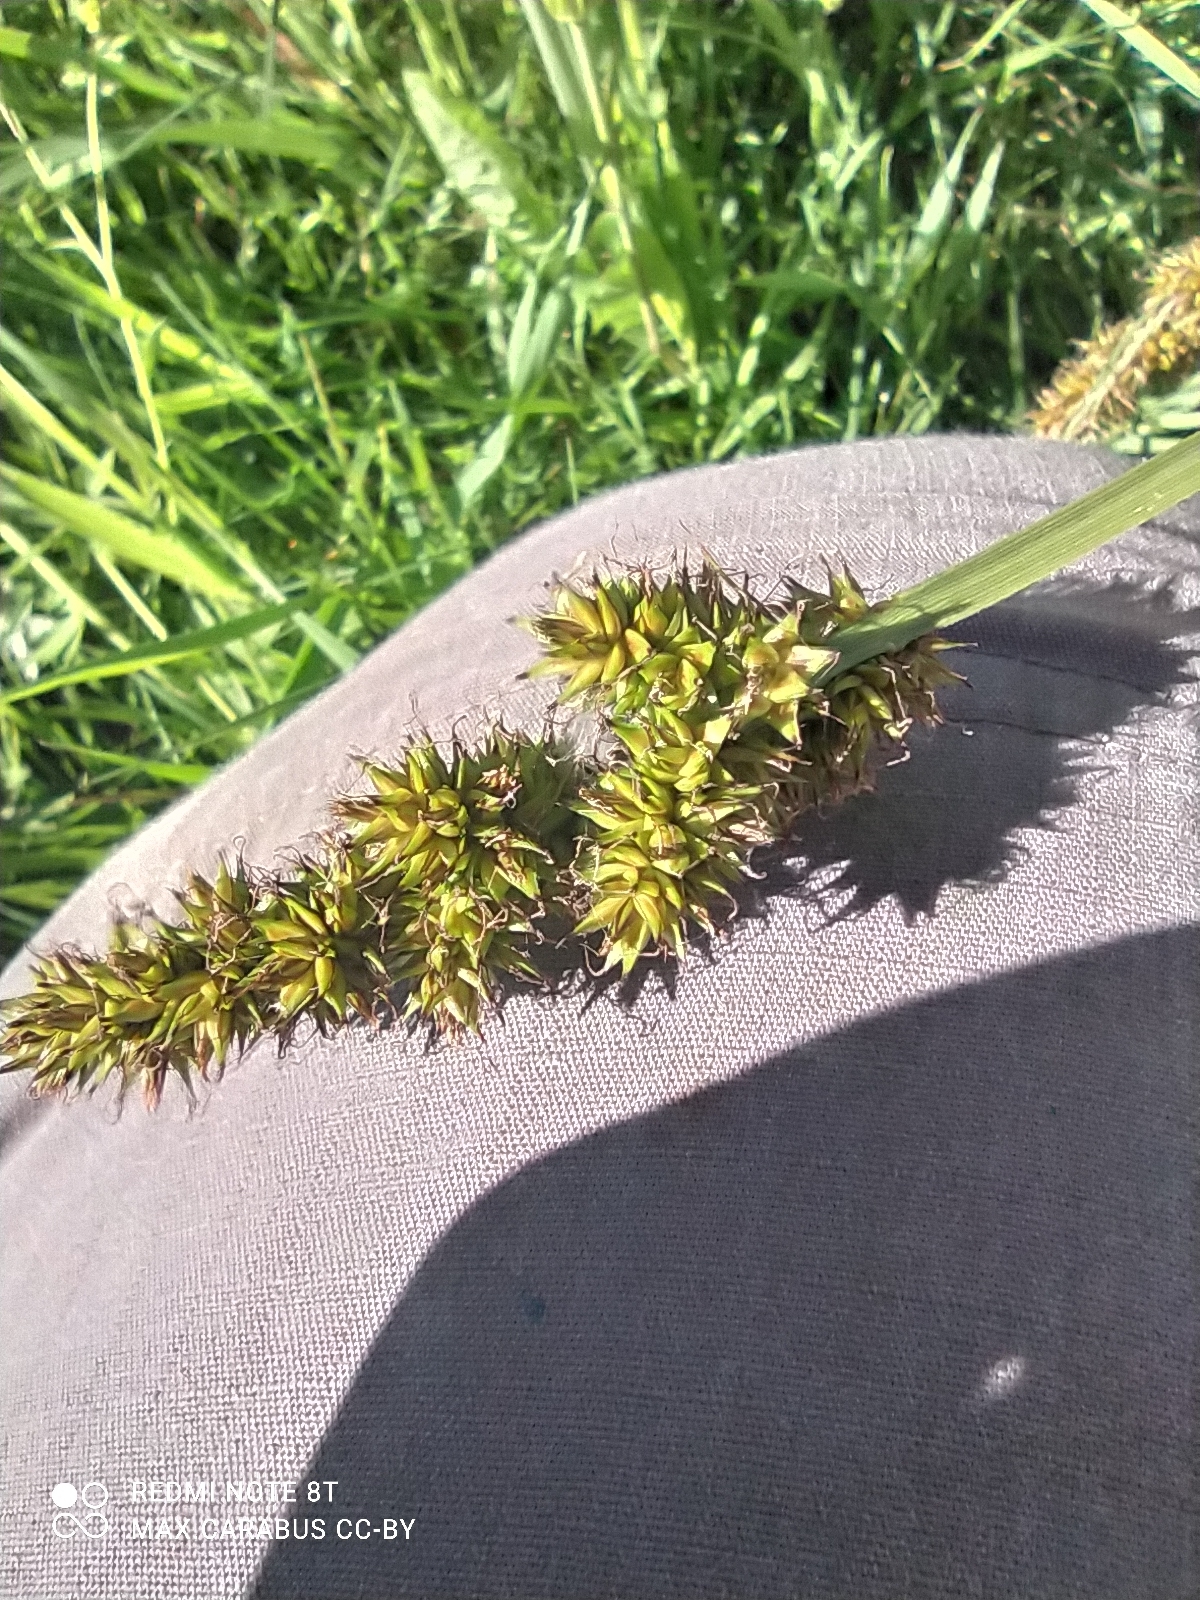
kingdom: Plantae
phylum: Tracheophyta
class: Liliopsida
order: Poales
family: Cyperaceae
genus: Carex
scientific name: Carex vulpina
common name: True fox-sedge
